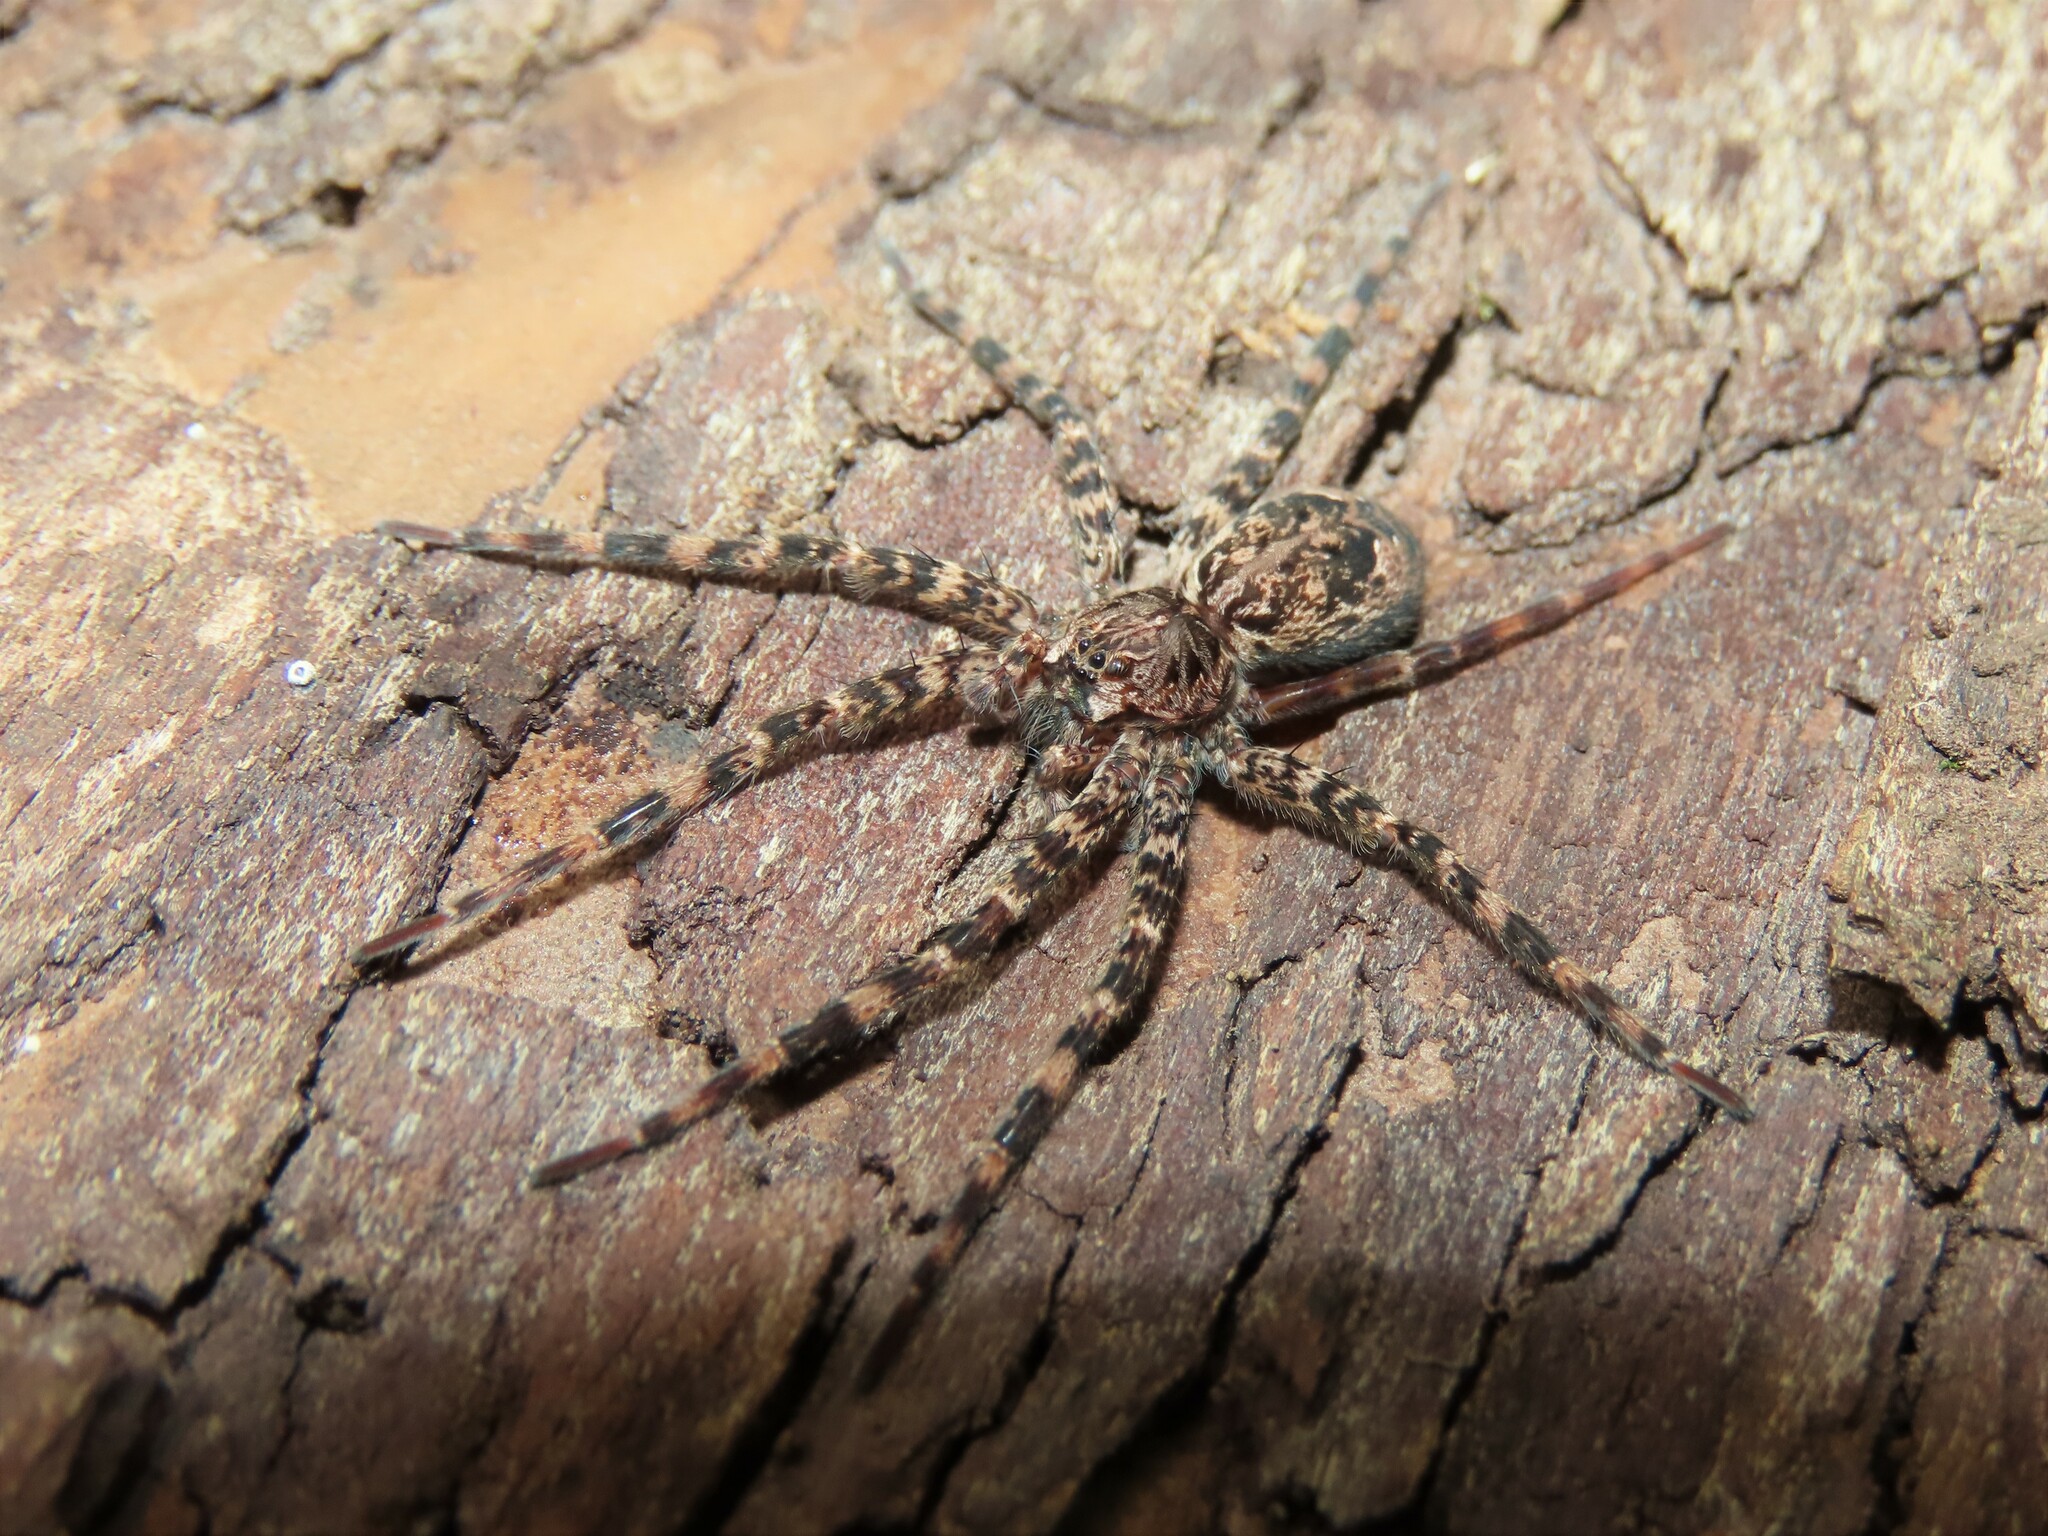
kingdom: Animalia
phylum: Arthropoda
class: Arachnida
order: Araneae
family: Pisauridae
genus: Dolomedes
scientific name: Dolomedes tenebrosus
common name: Dark fishing spider
